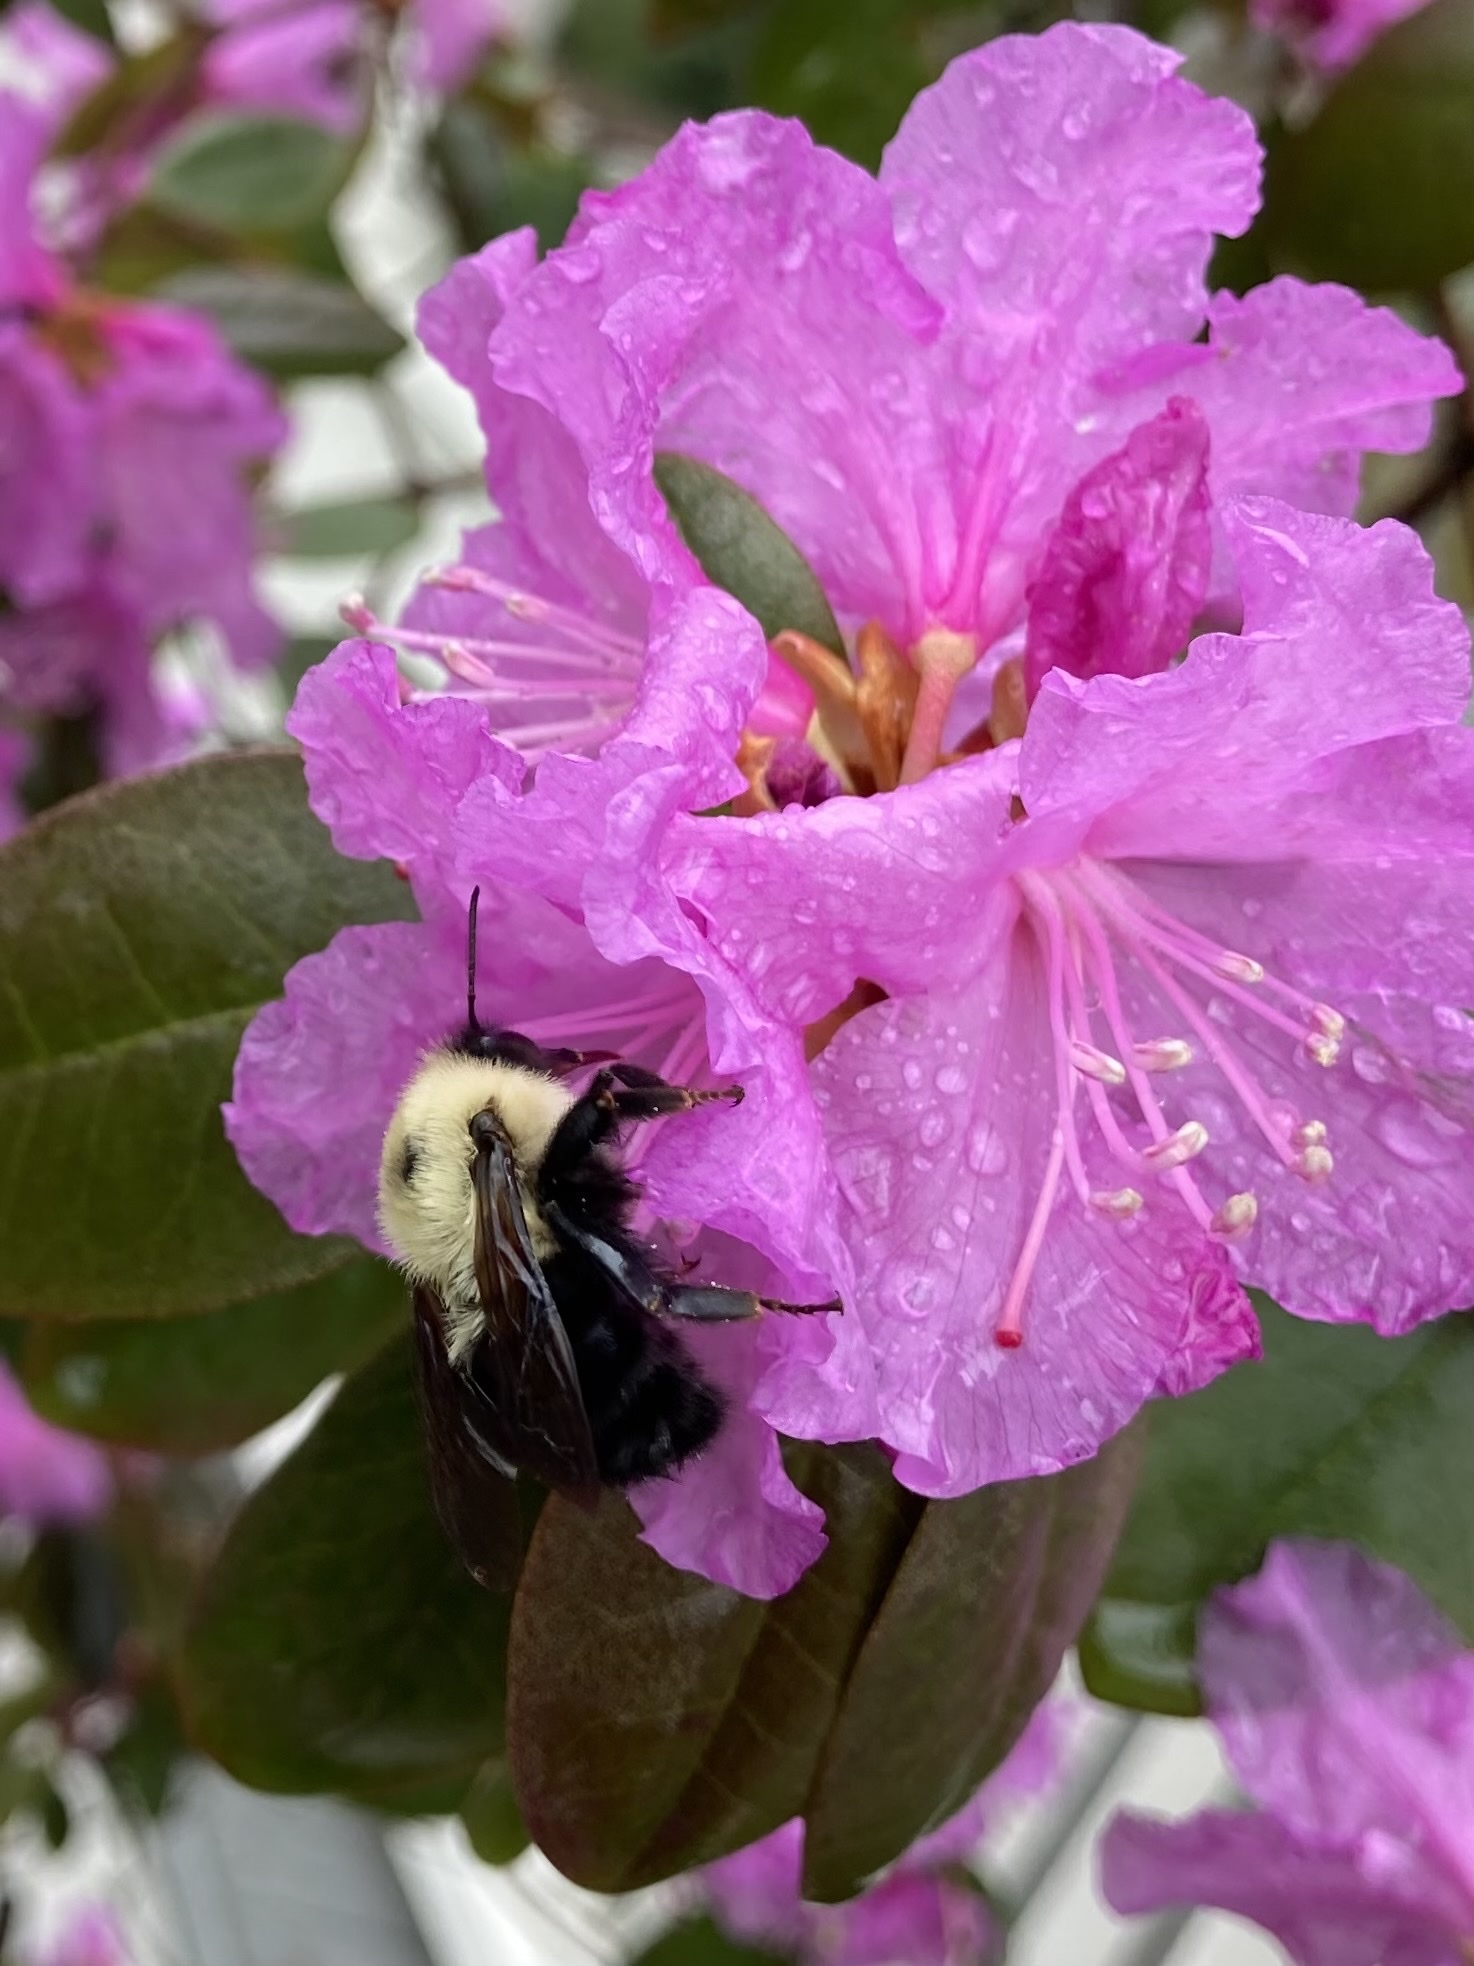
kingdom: Animalia
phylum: Arthropoda
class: Insecta
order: Hymenoptera
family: Apidae
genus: Bombus
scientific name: Bombus bimaculatus
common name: Two-spotted bumble bee
